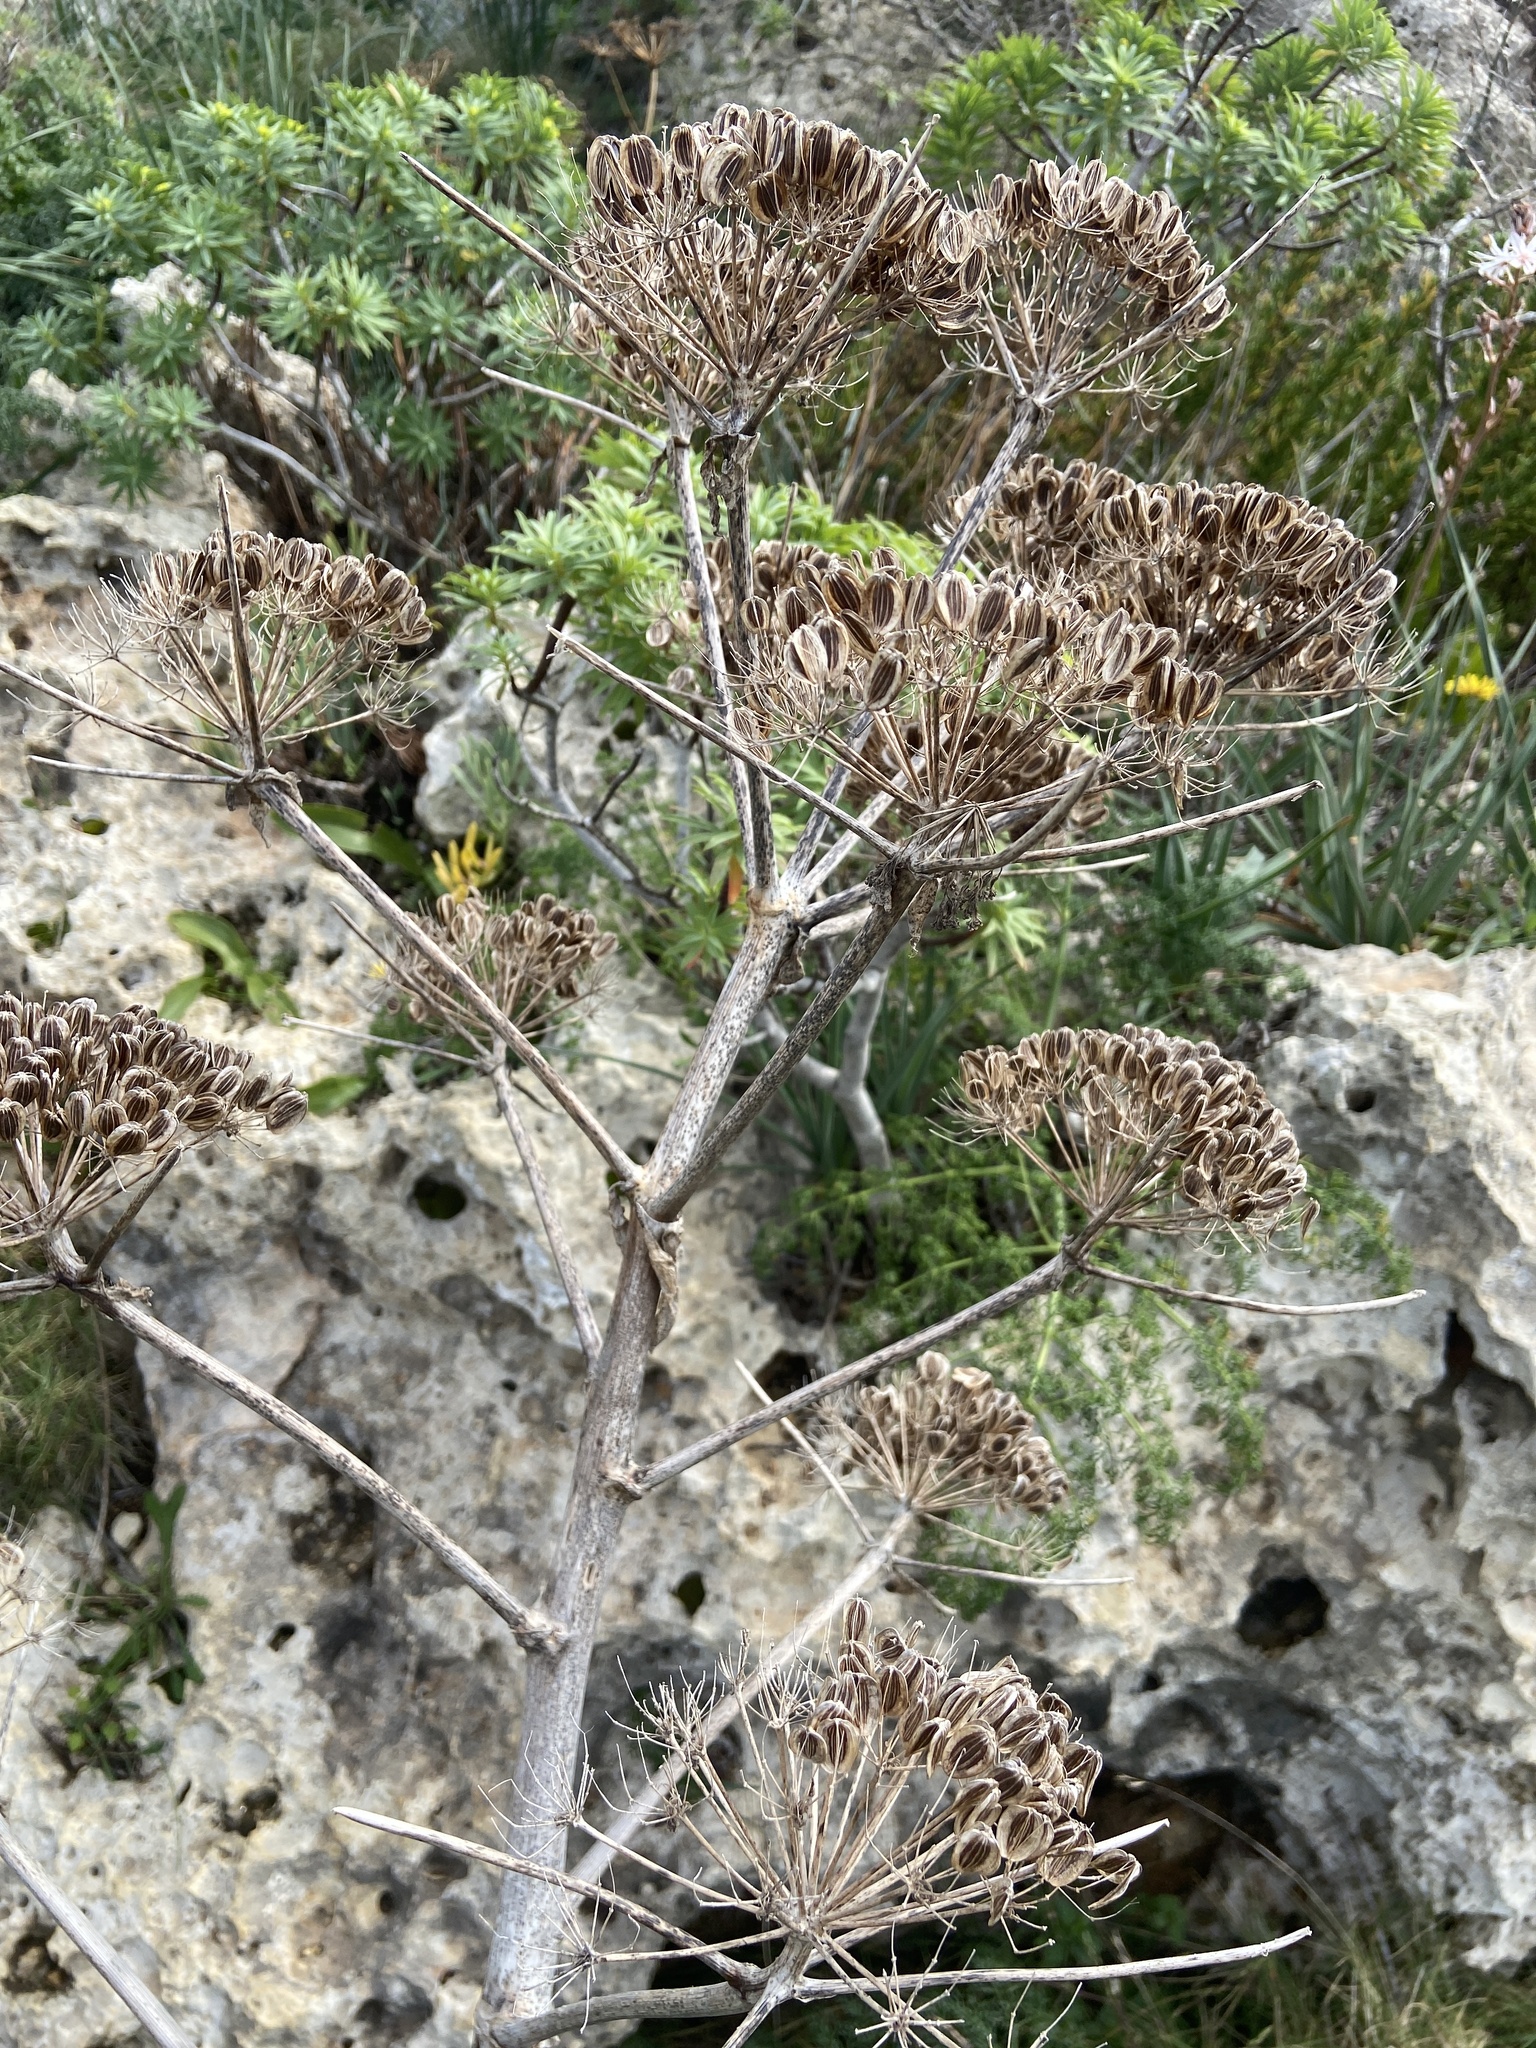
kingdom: Plantae
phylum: Tracheophyta
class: Magnoliopsida
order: Apiales
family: Apiaceae
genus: Ferula
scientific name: Ferula melitensis
